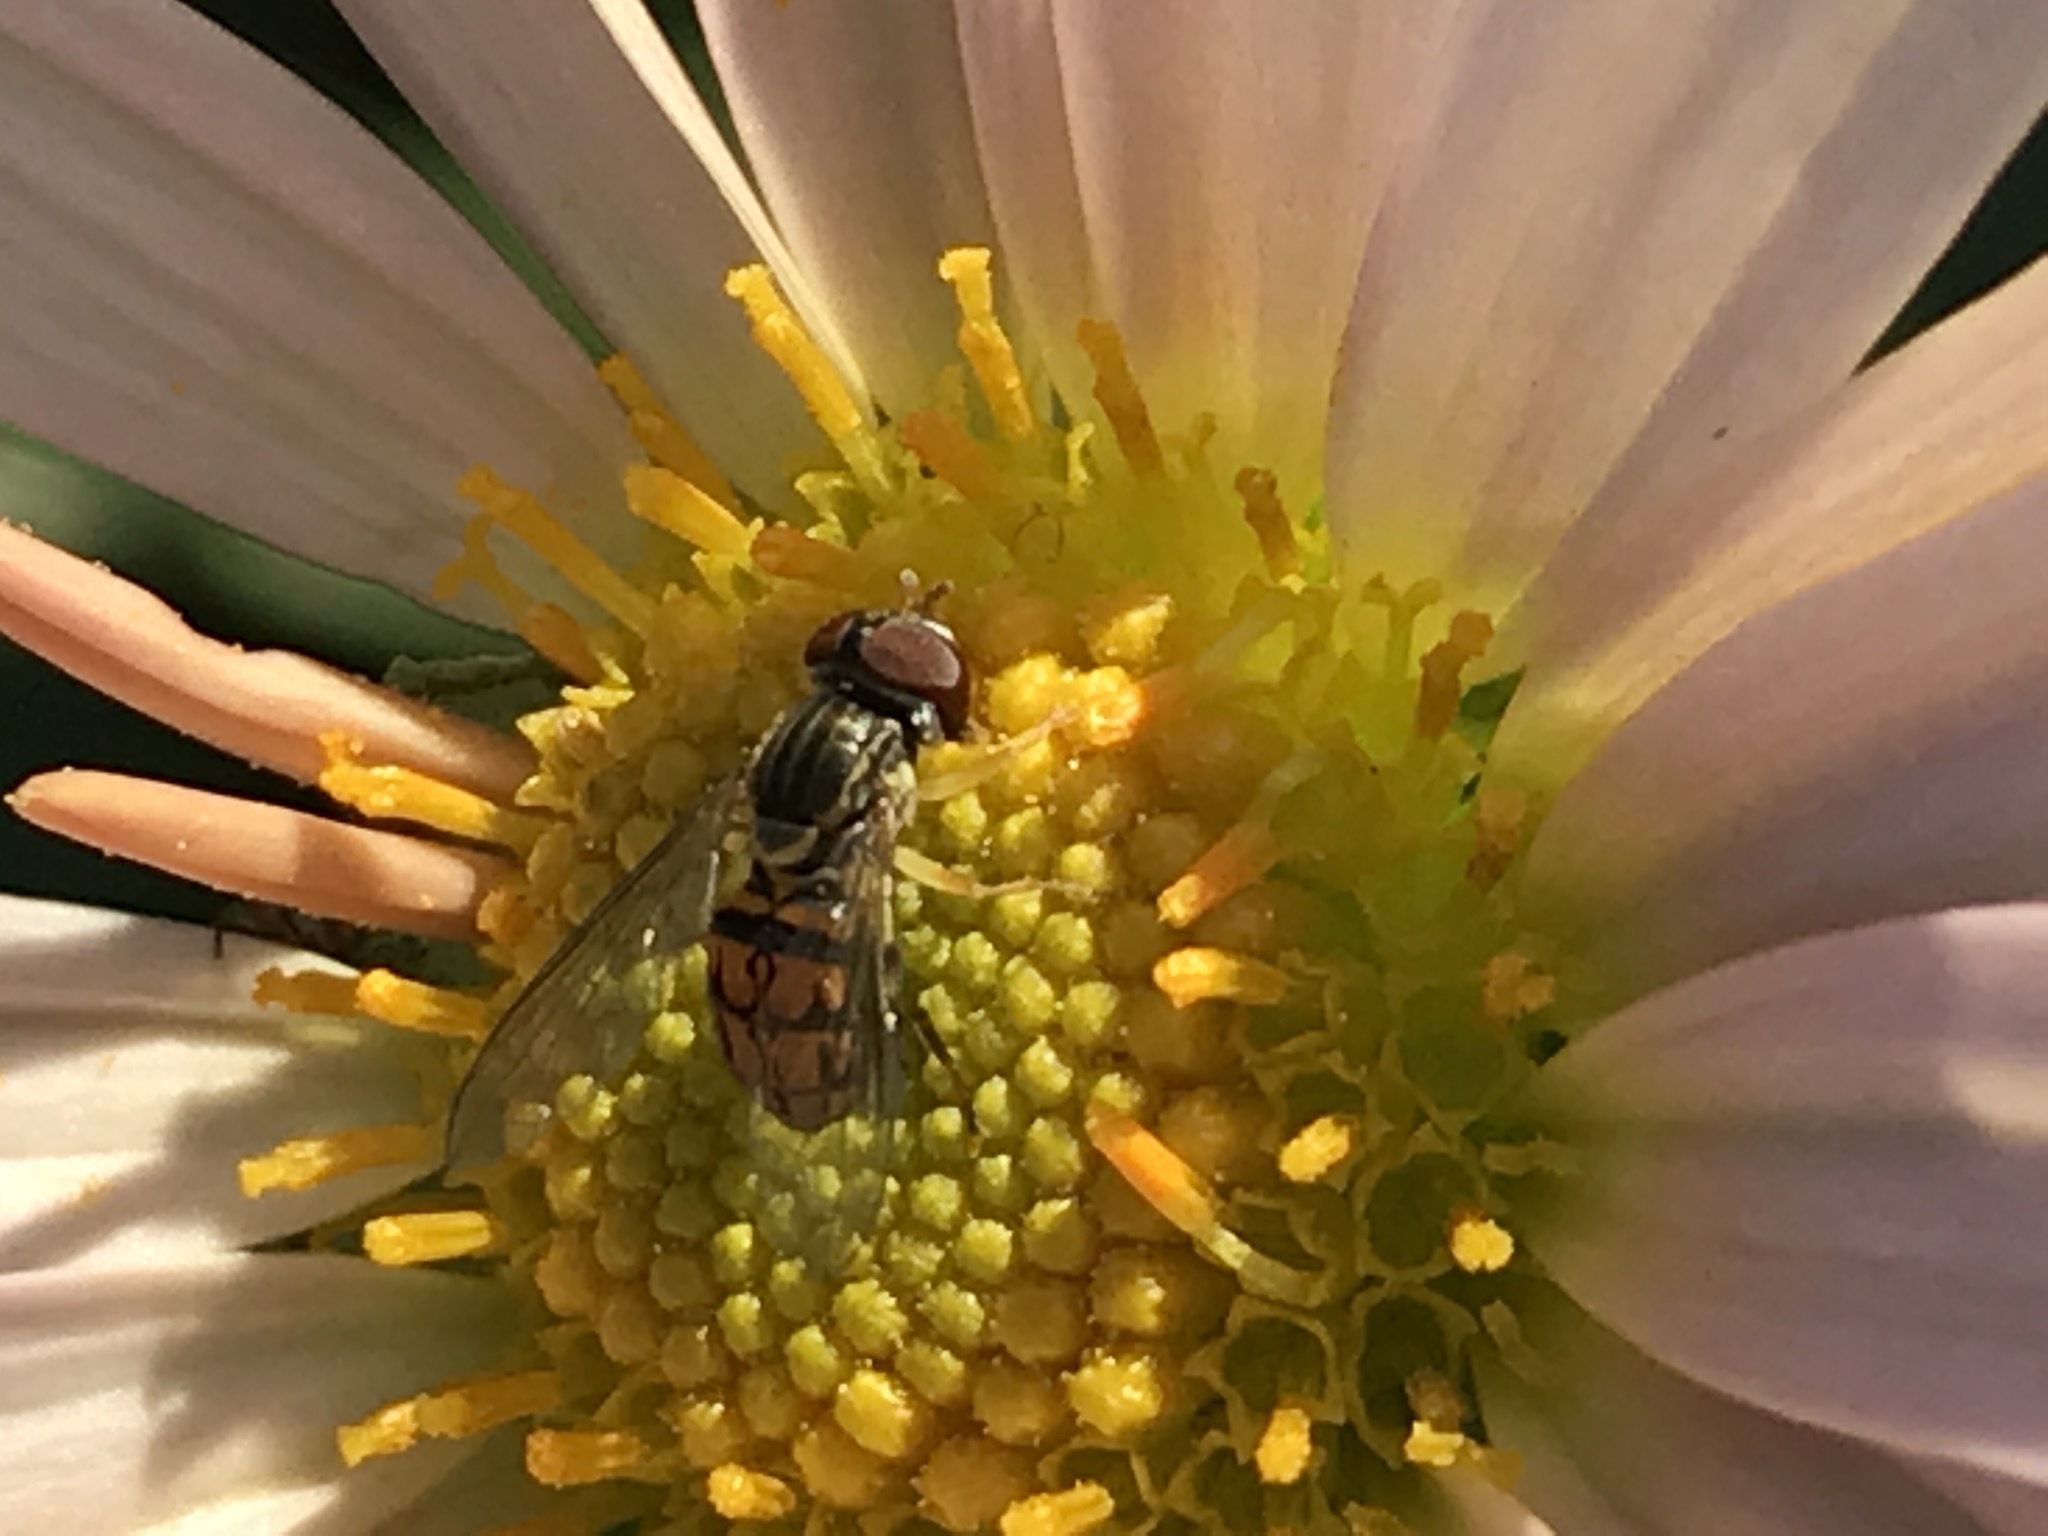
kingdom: Animalia
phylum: Arthropoda
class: Insecta
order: Diptera
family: Syrphidae
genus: Toxomerus
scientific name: Toxomerus boscii
